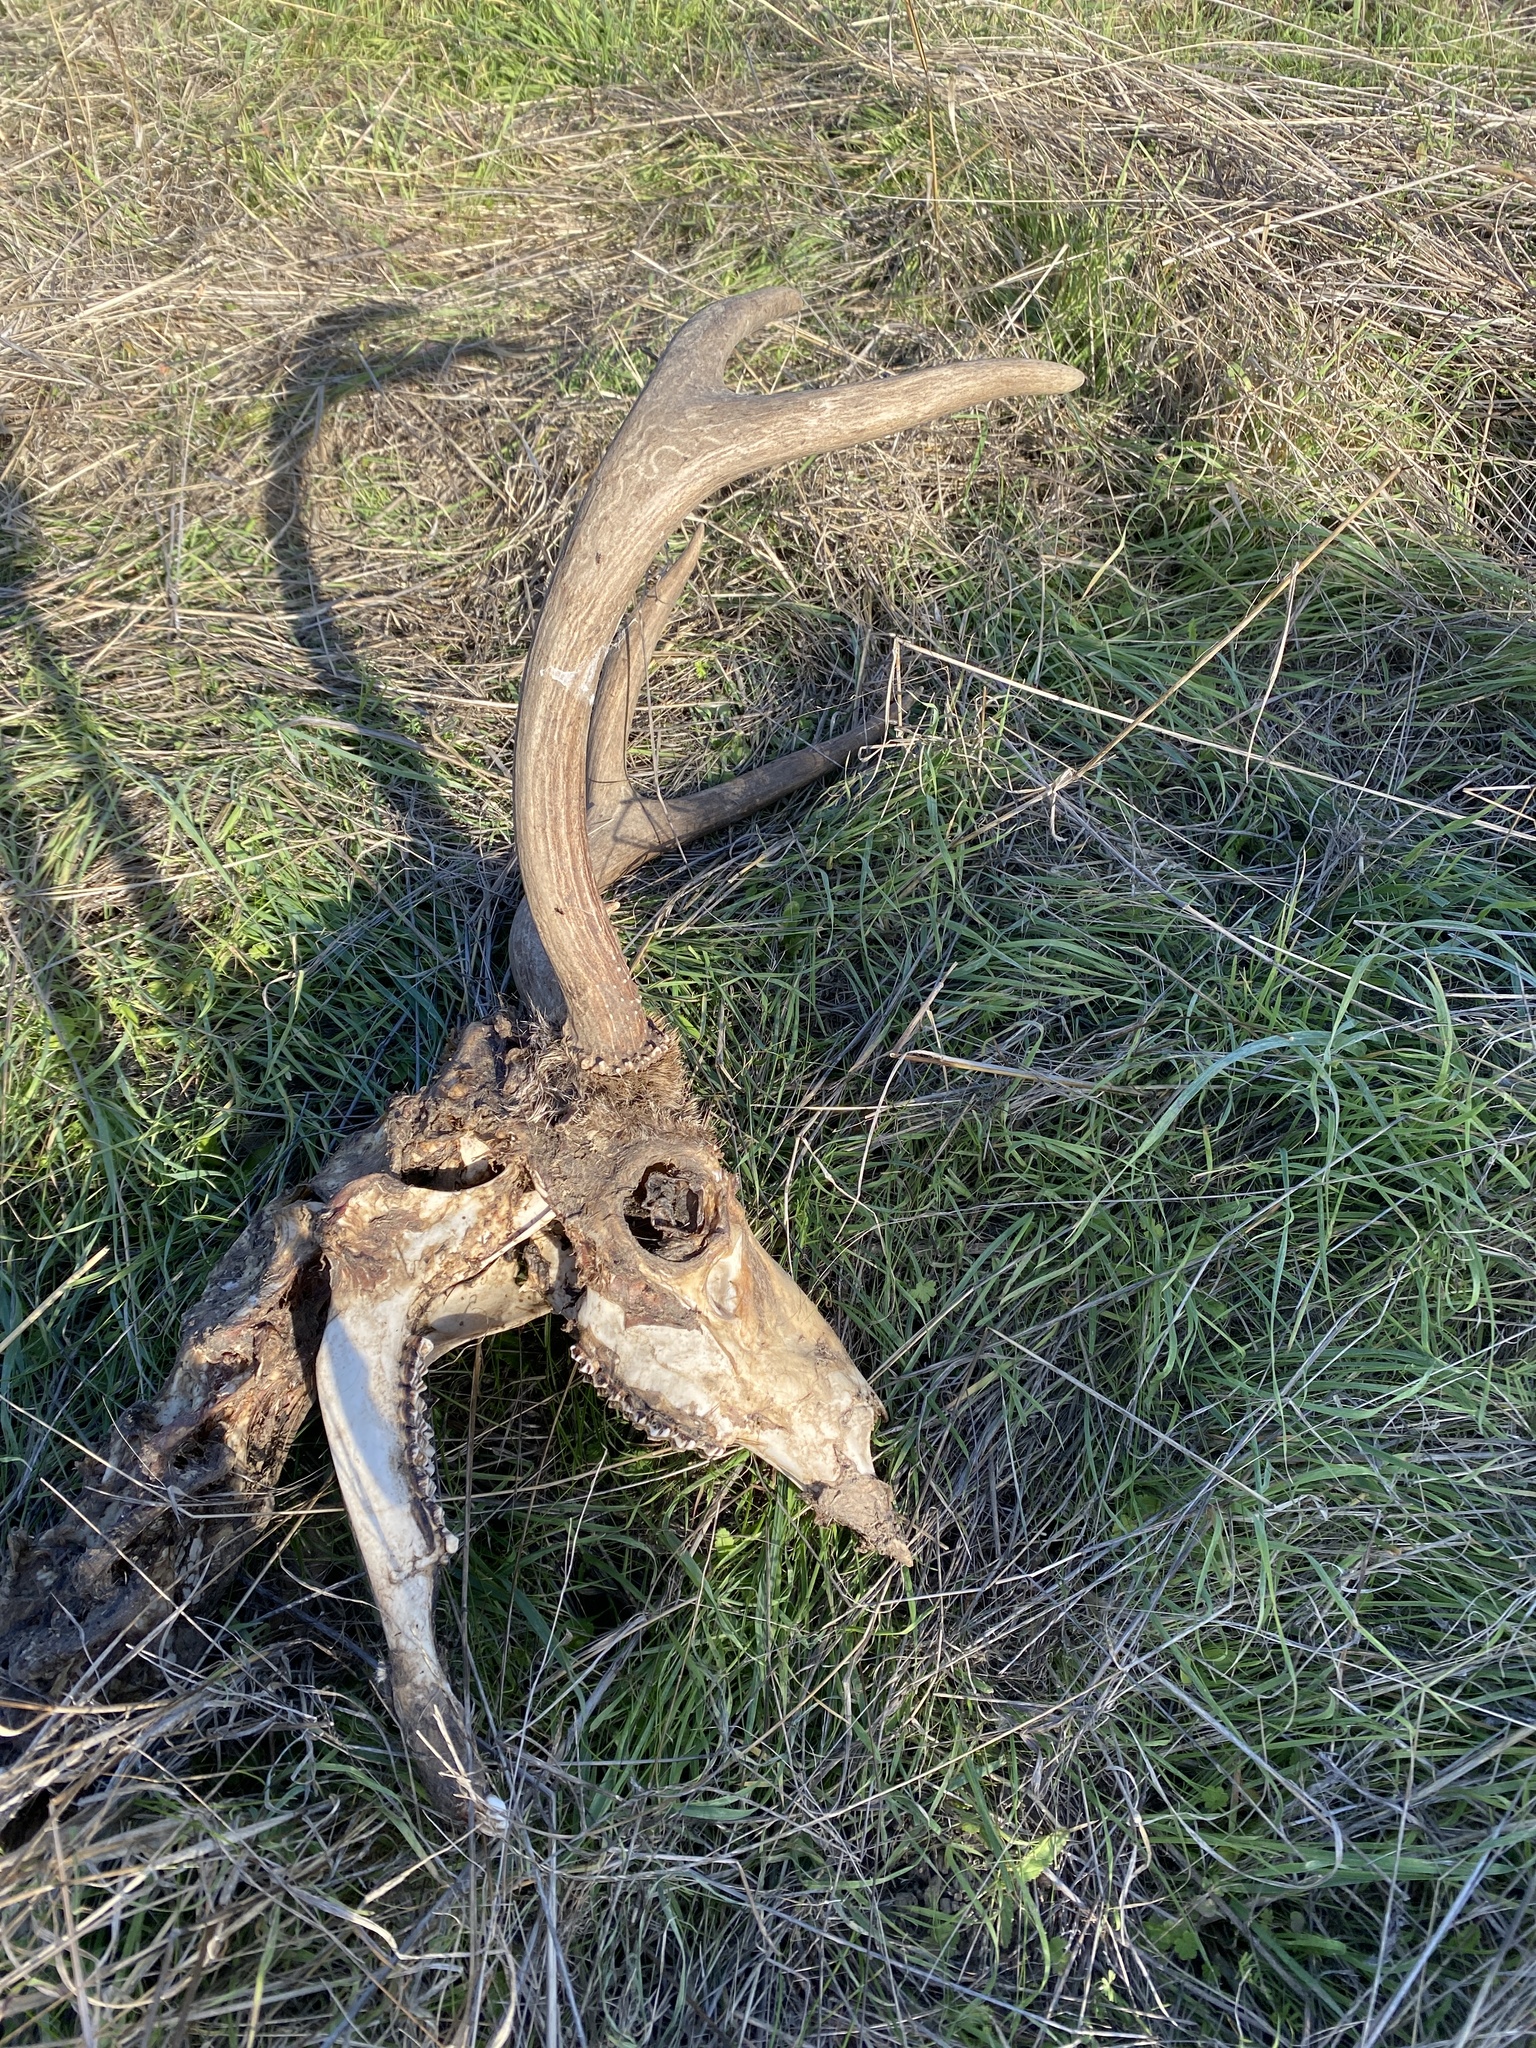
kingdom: Animalia
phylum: Chordata
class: Mammalia
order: Artiodactyla
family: Cervidae
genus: Odocoileus
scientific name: Odocoileus hemionus
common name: Mule deer
